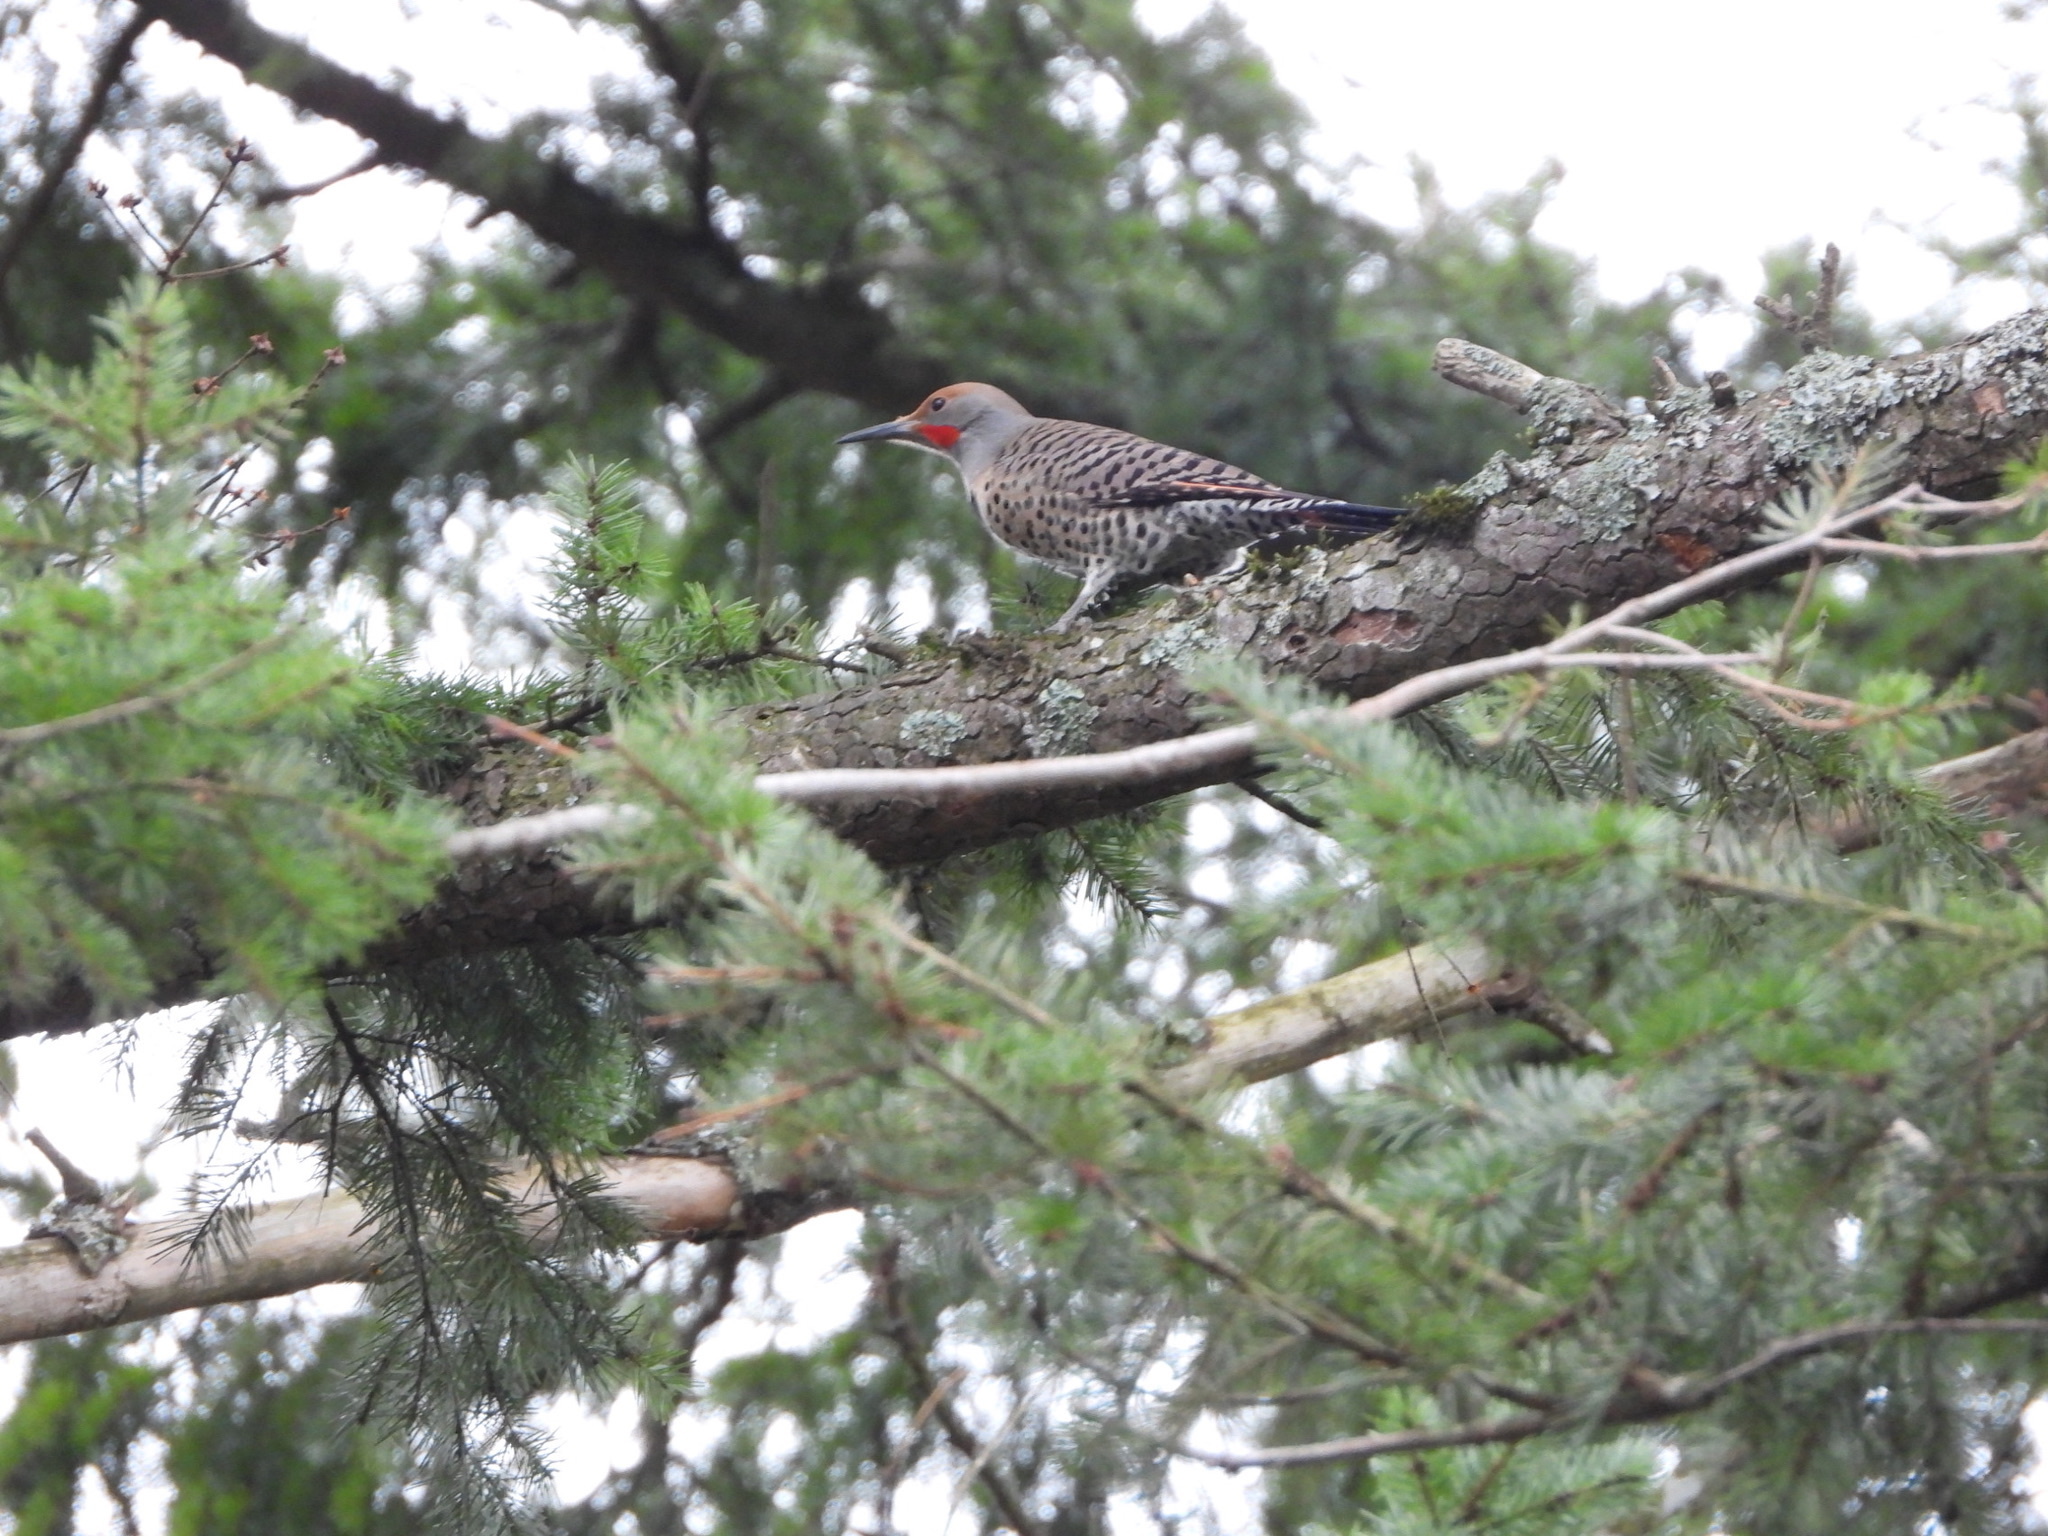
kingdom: Animalia
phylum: Chordata
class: Aves
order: Piciformes
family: Picidae
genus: Colaptes
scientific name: Colaptes auratus
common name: Northern flicker
